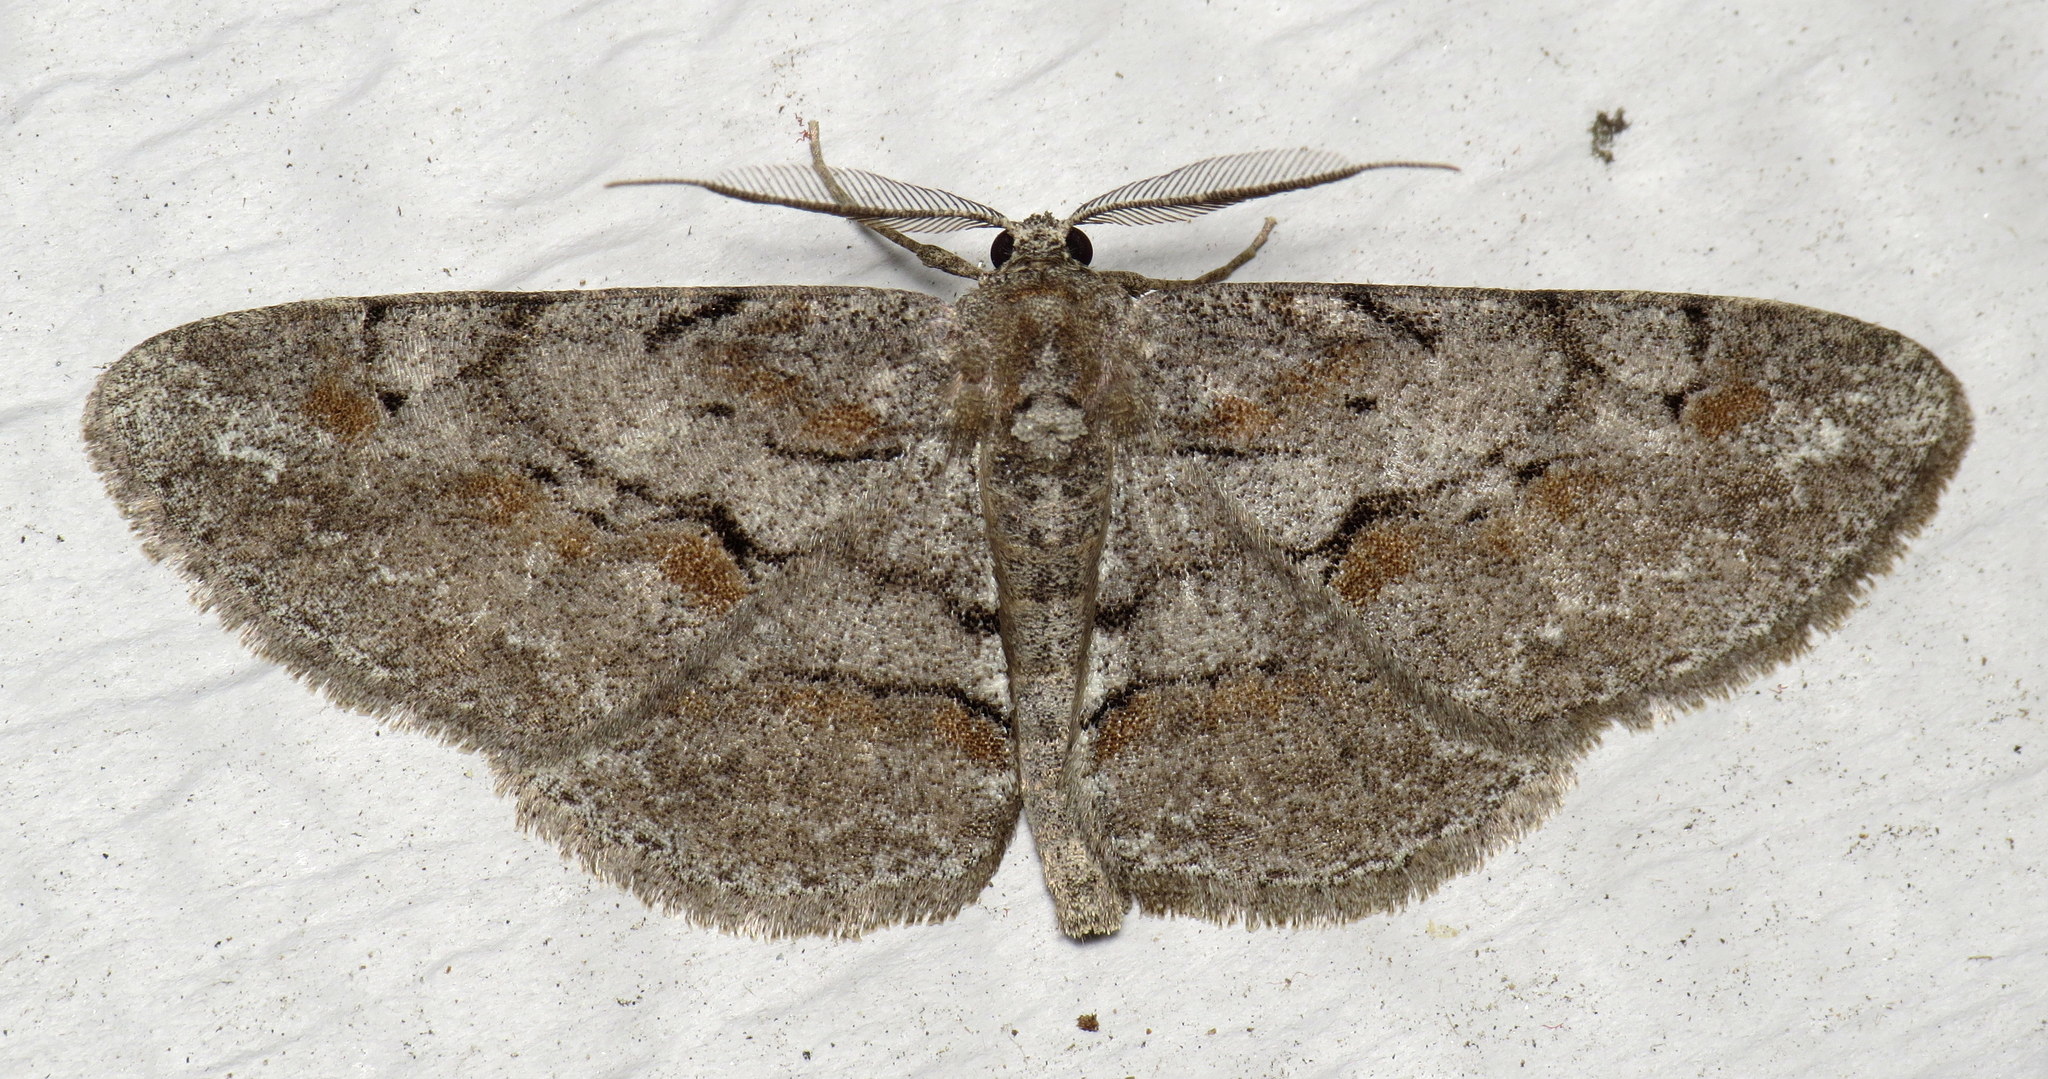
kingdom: Animalia
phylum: Arthropoda
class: Insecta
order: Lepidoptera
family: Geometridae
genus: Iridopsis
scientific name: Iridopsis vellivolata
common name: Large purplish gray
